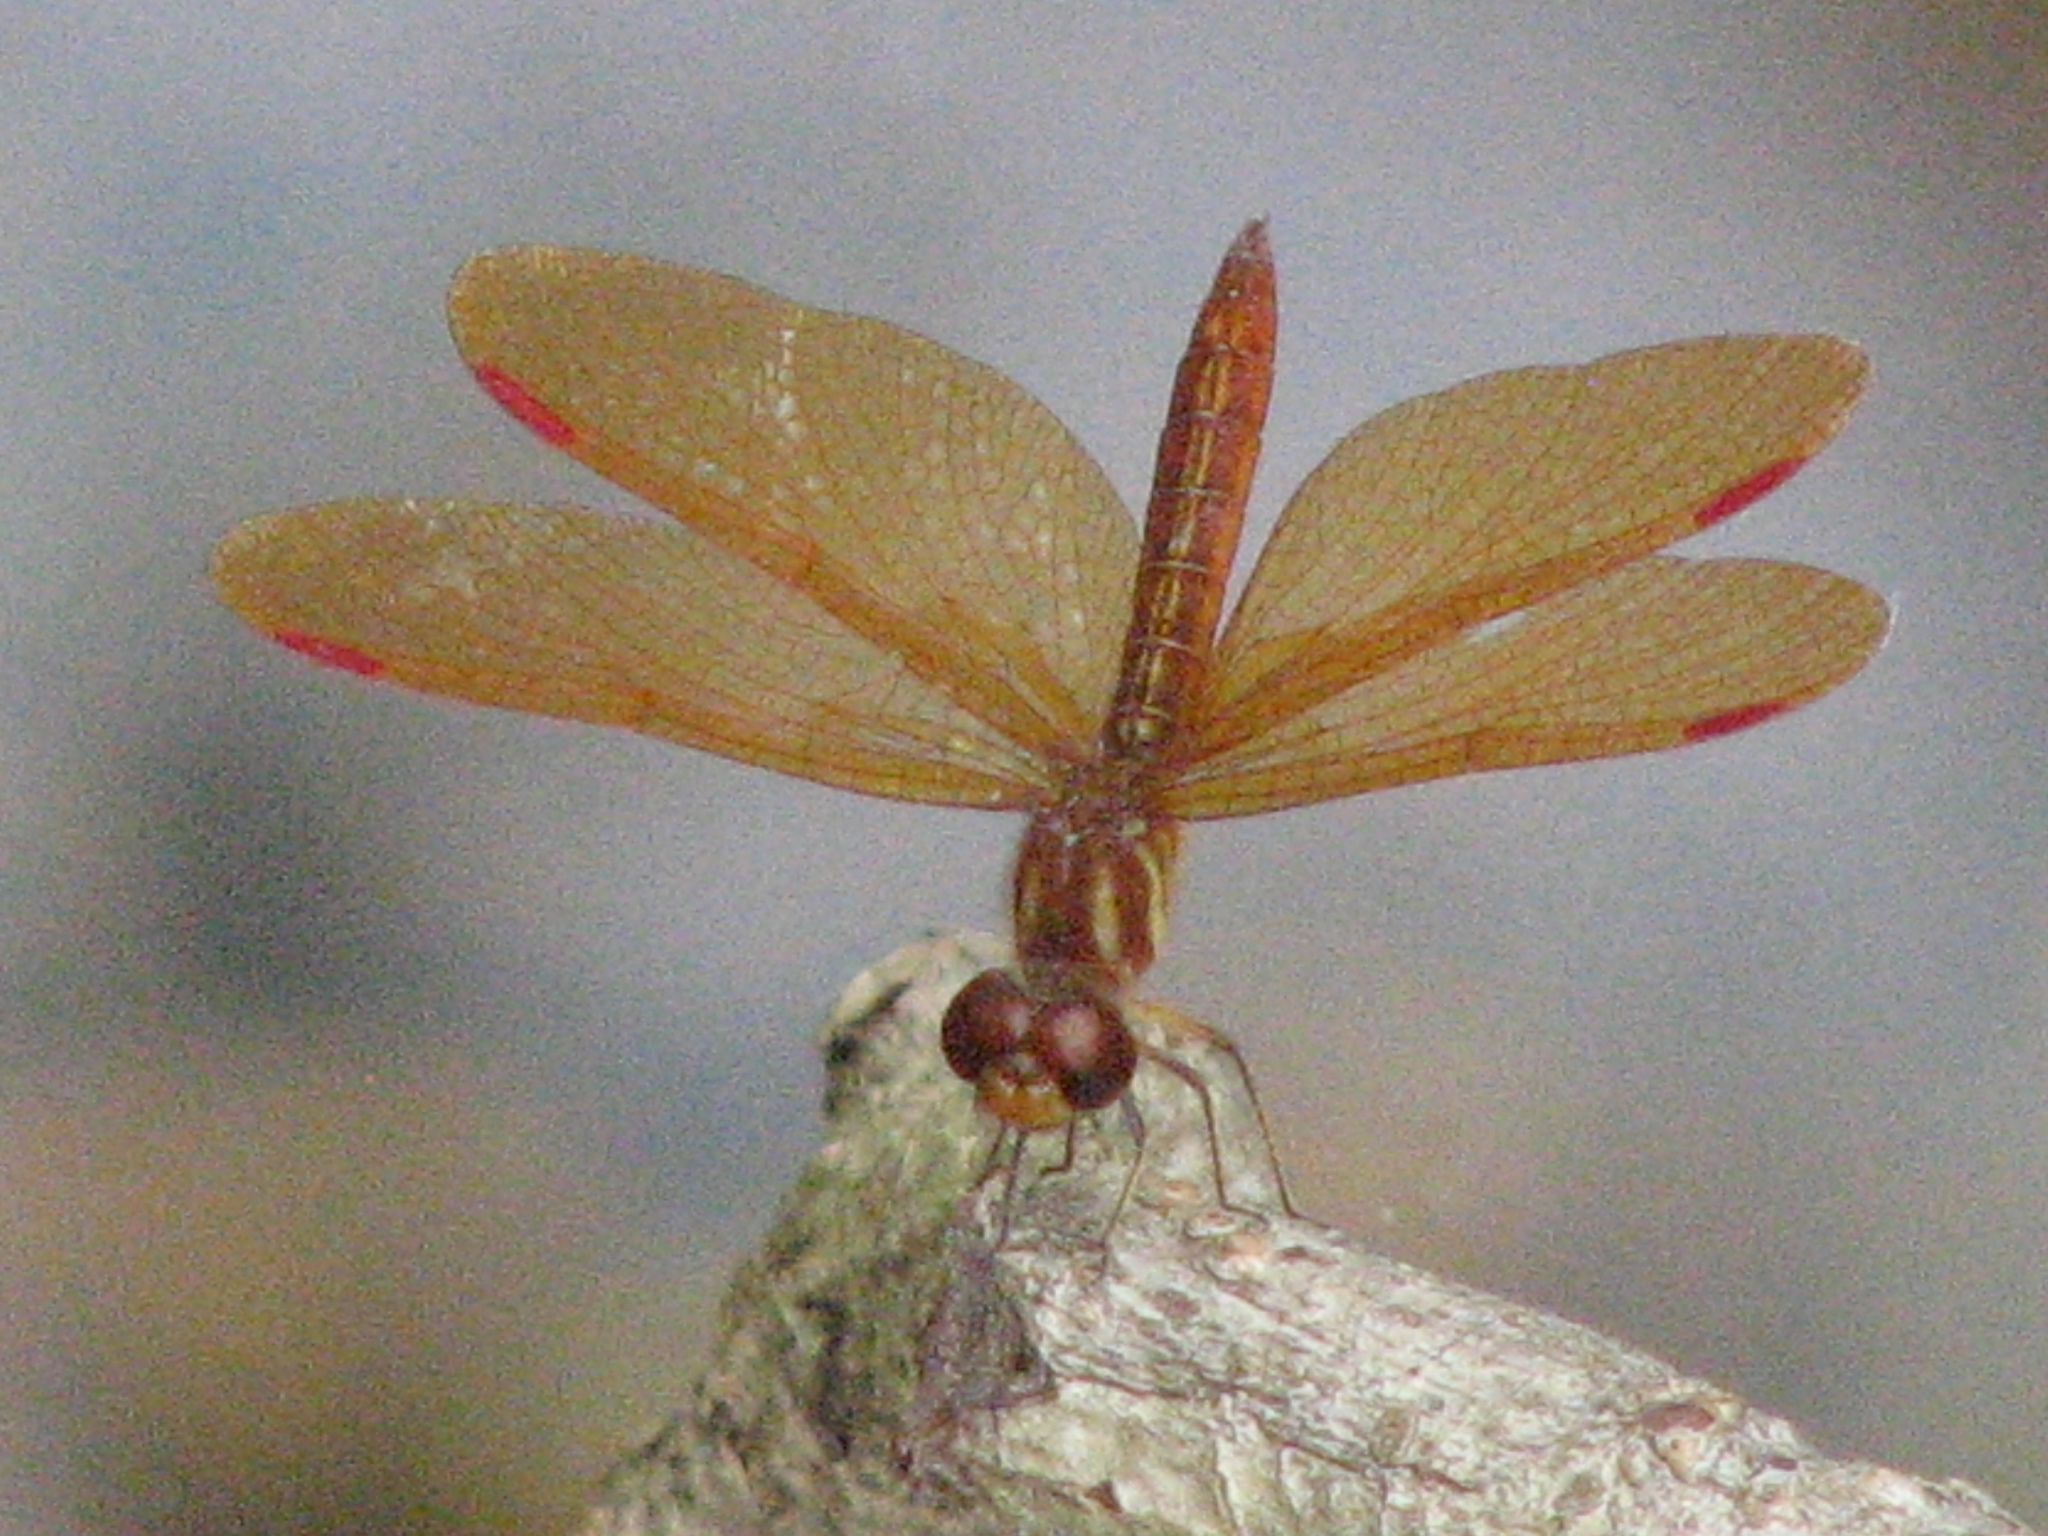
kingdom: Animalia
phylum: Arthropoda
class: Insecta
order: Odonata
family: Libellulidae
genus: Perithemis
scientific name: Perithemis domitia
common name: Slough amberwing
